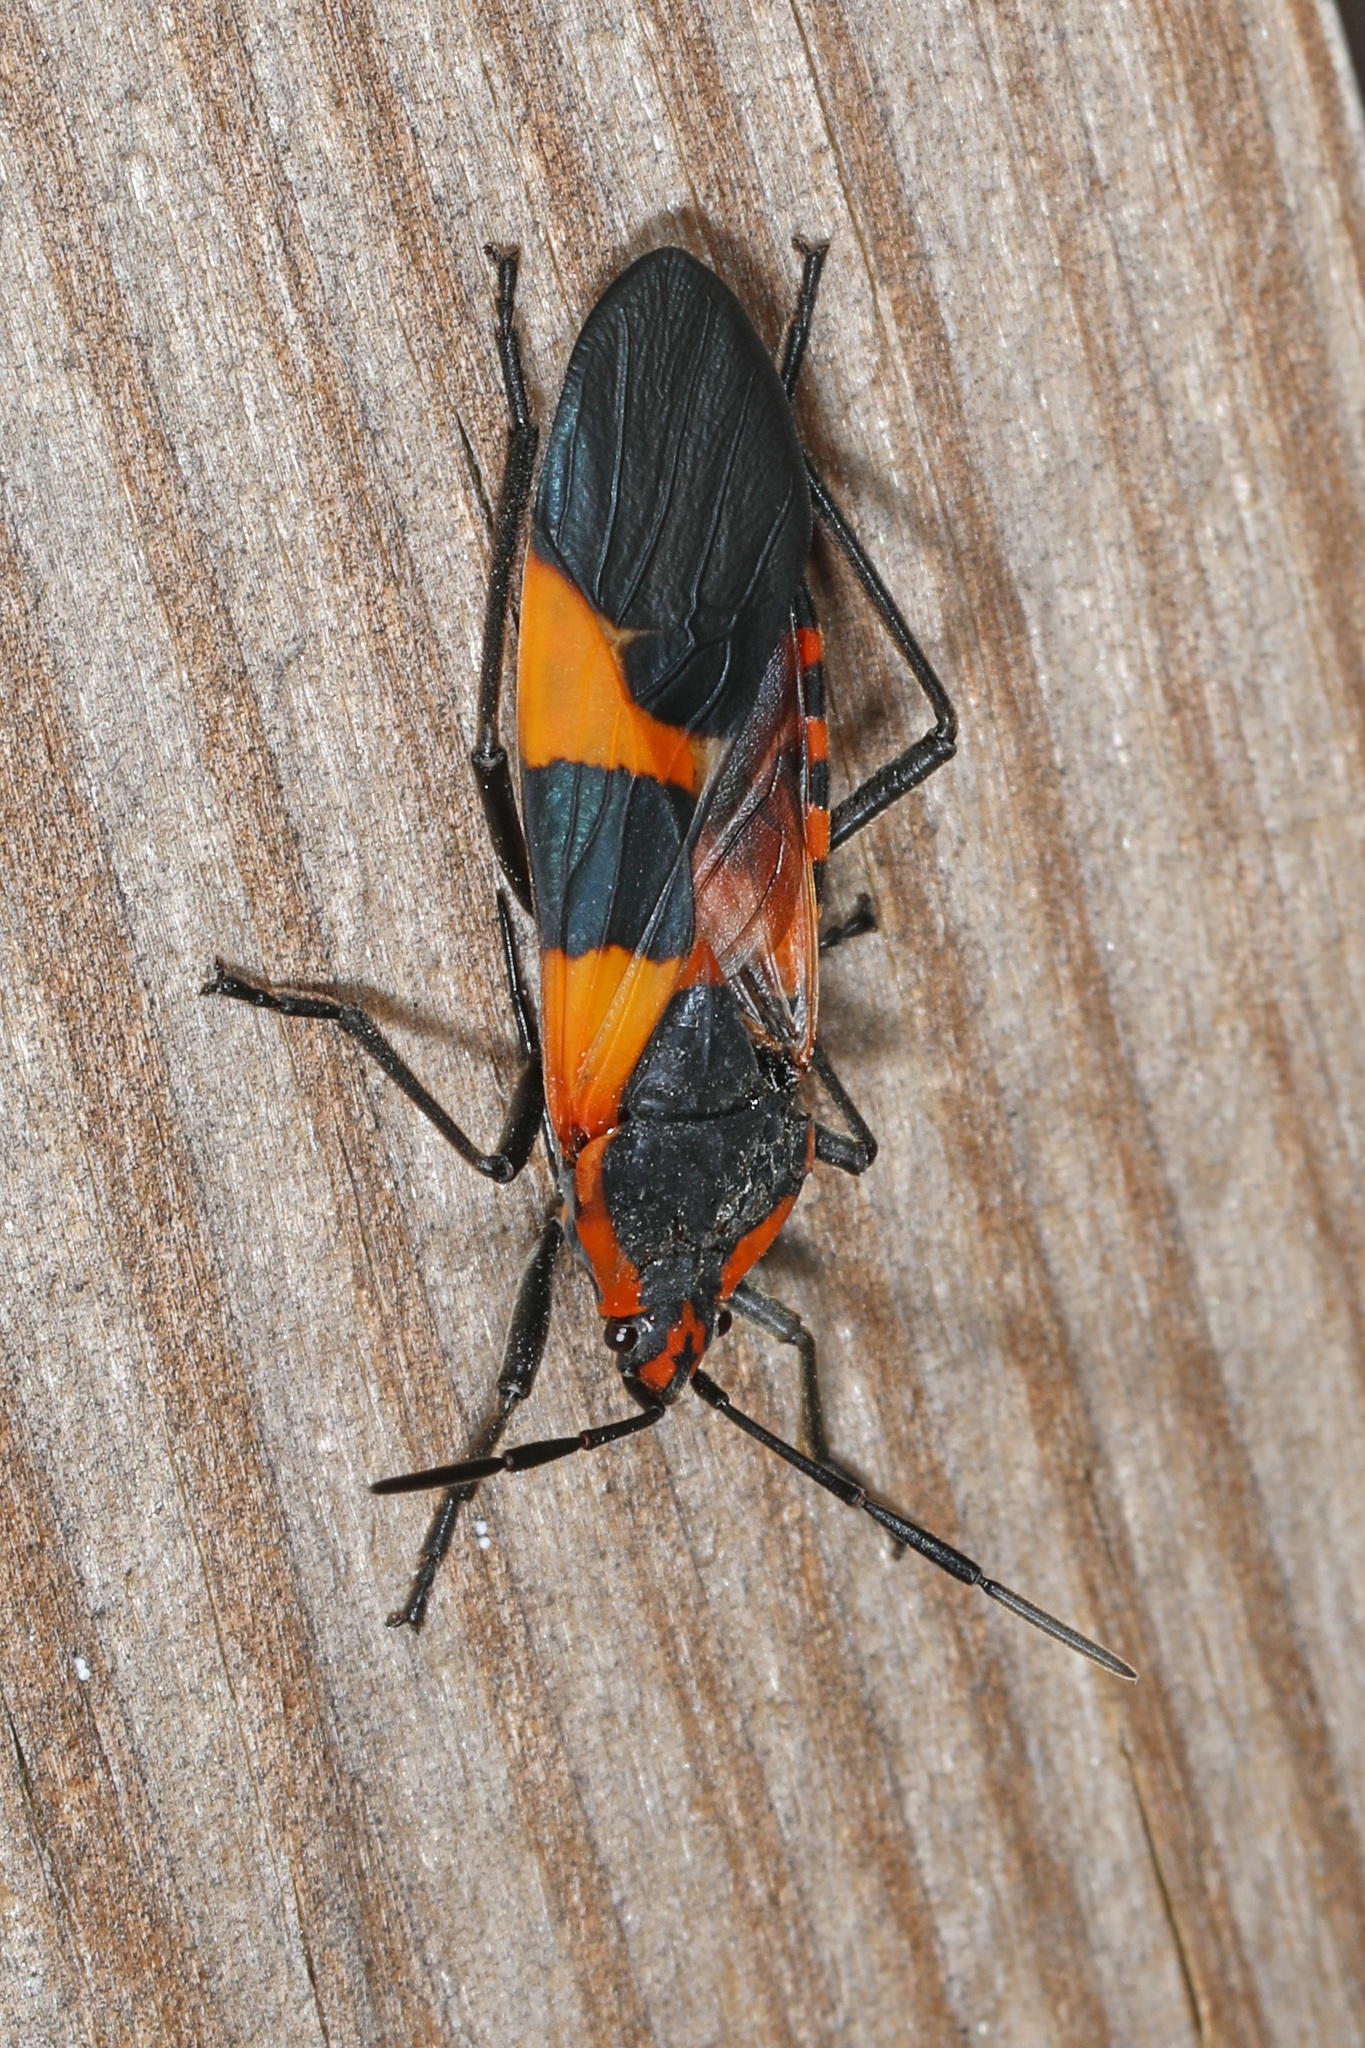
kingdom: Animalia
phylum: Arthropoda
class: Insecta
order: Hemiptera
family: Lygaeidae
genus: Oncopeltus
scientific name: Oncopeltus fasciatus
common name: Large milkweed bug
